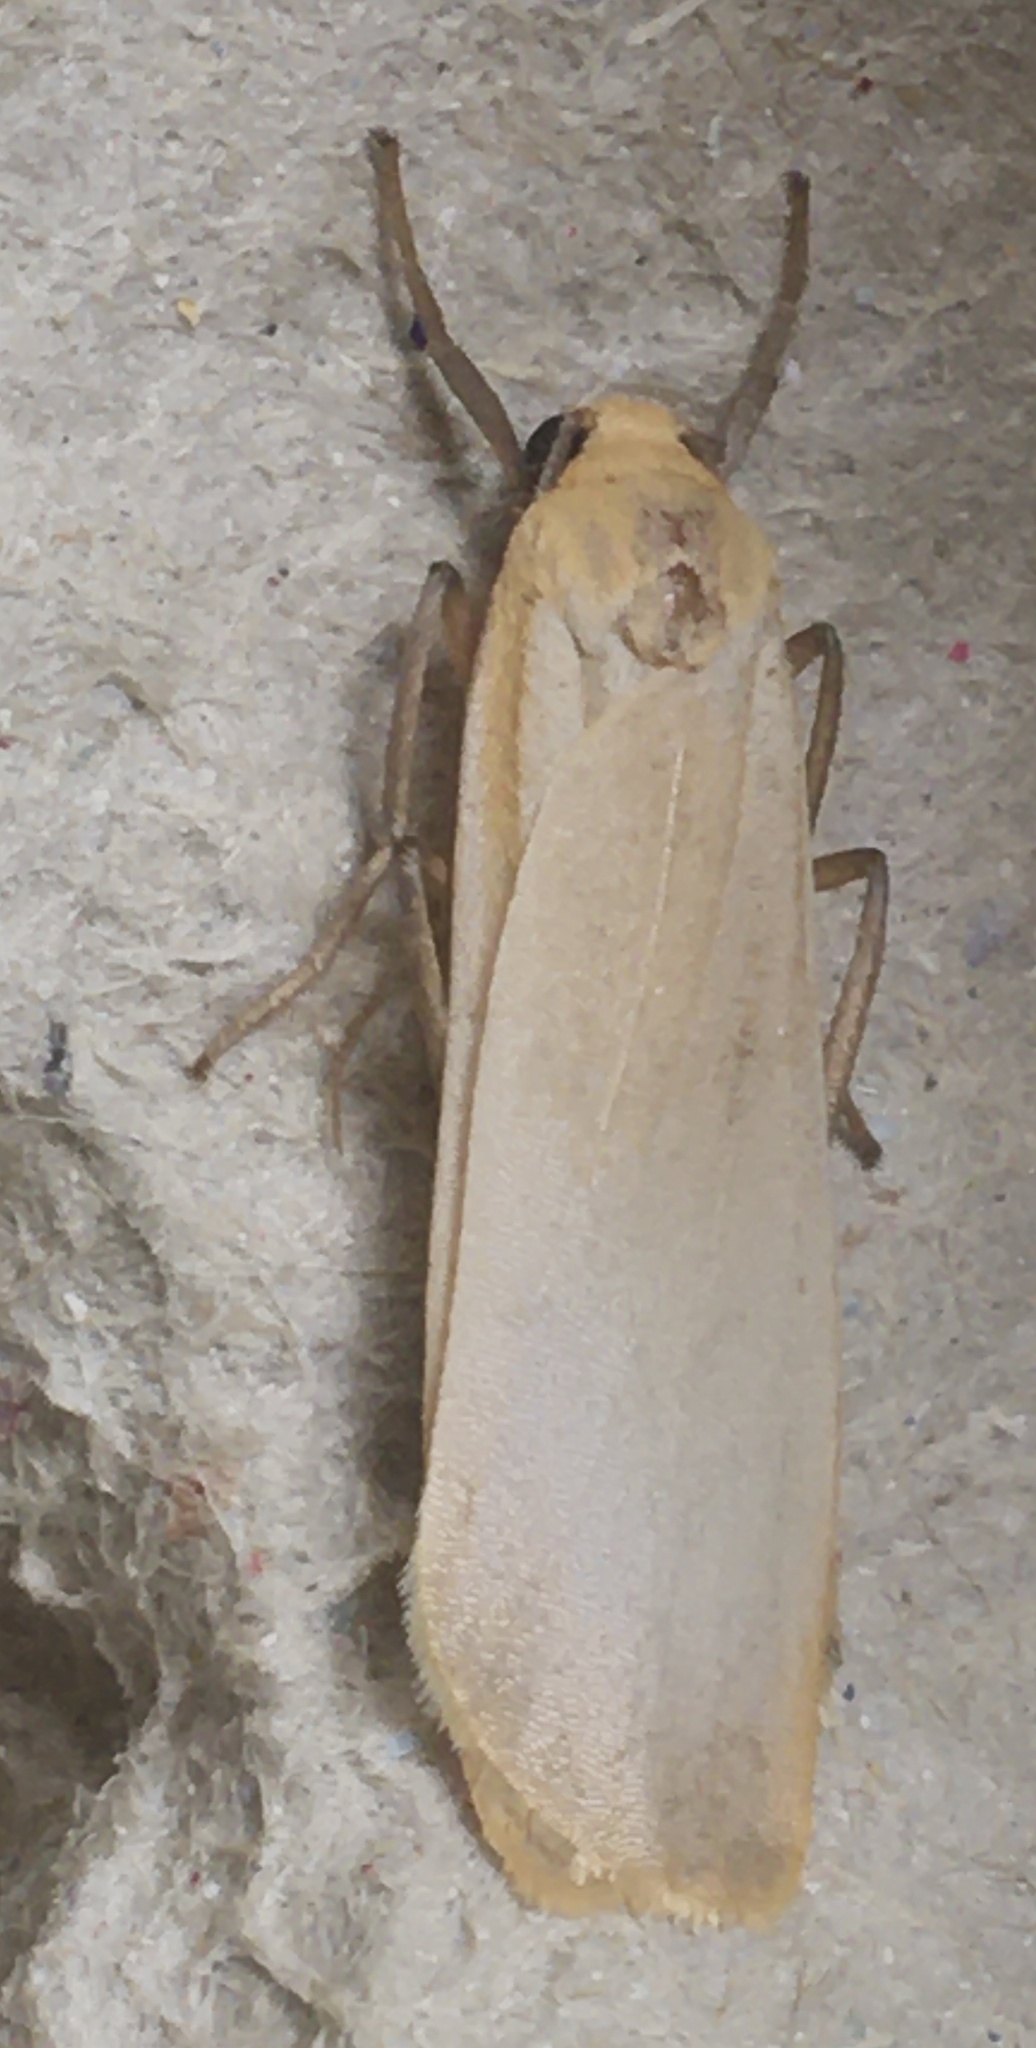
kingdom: Animalia
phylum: Arthropoda
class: Insecta
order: Lepidoptera
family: Erebidae
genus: Katha
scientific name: Katha depressa
